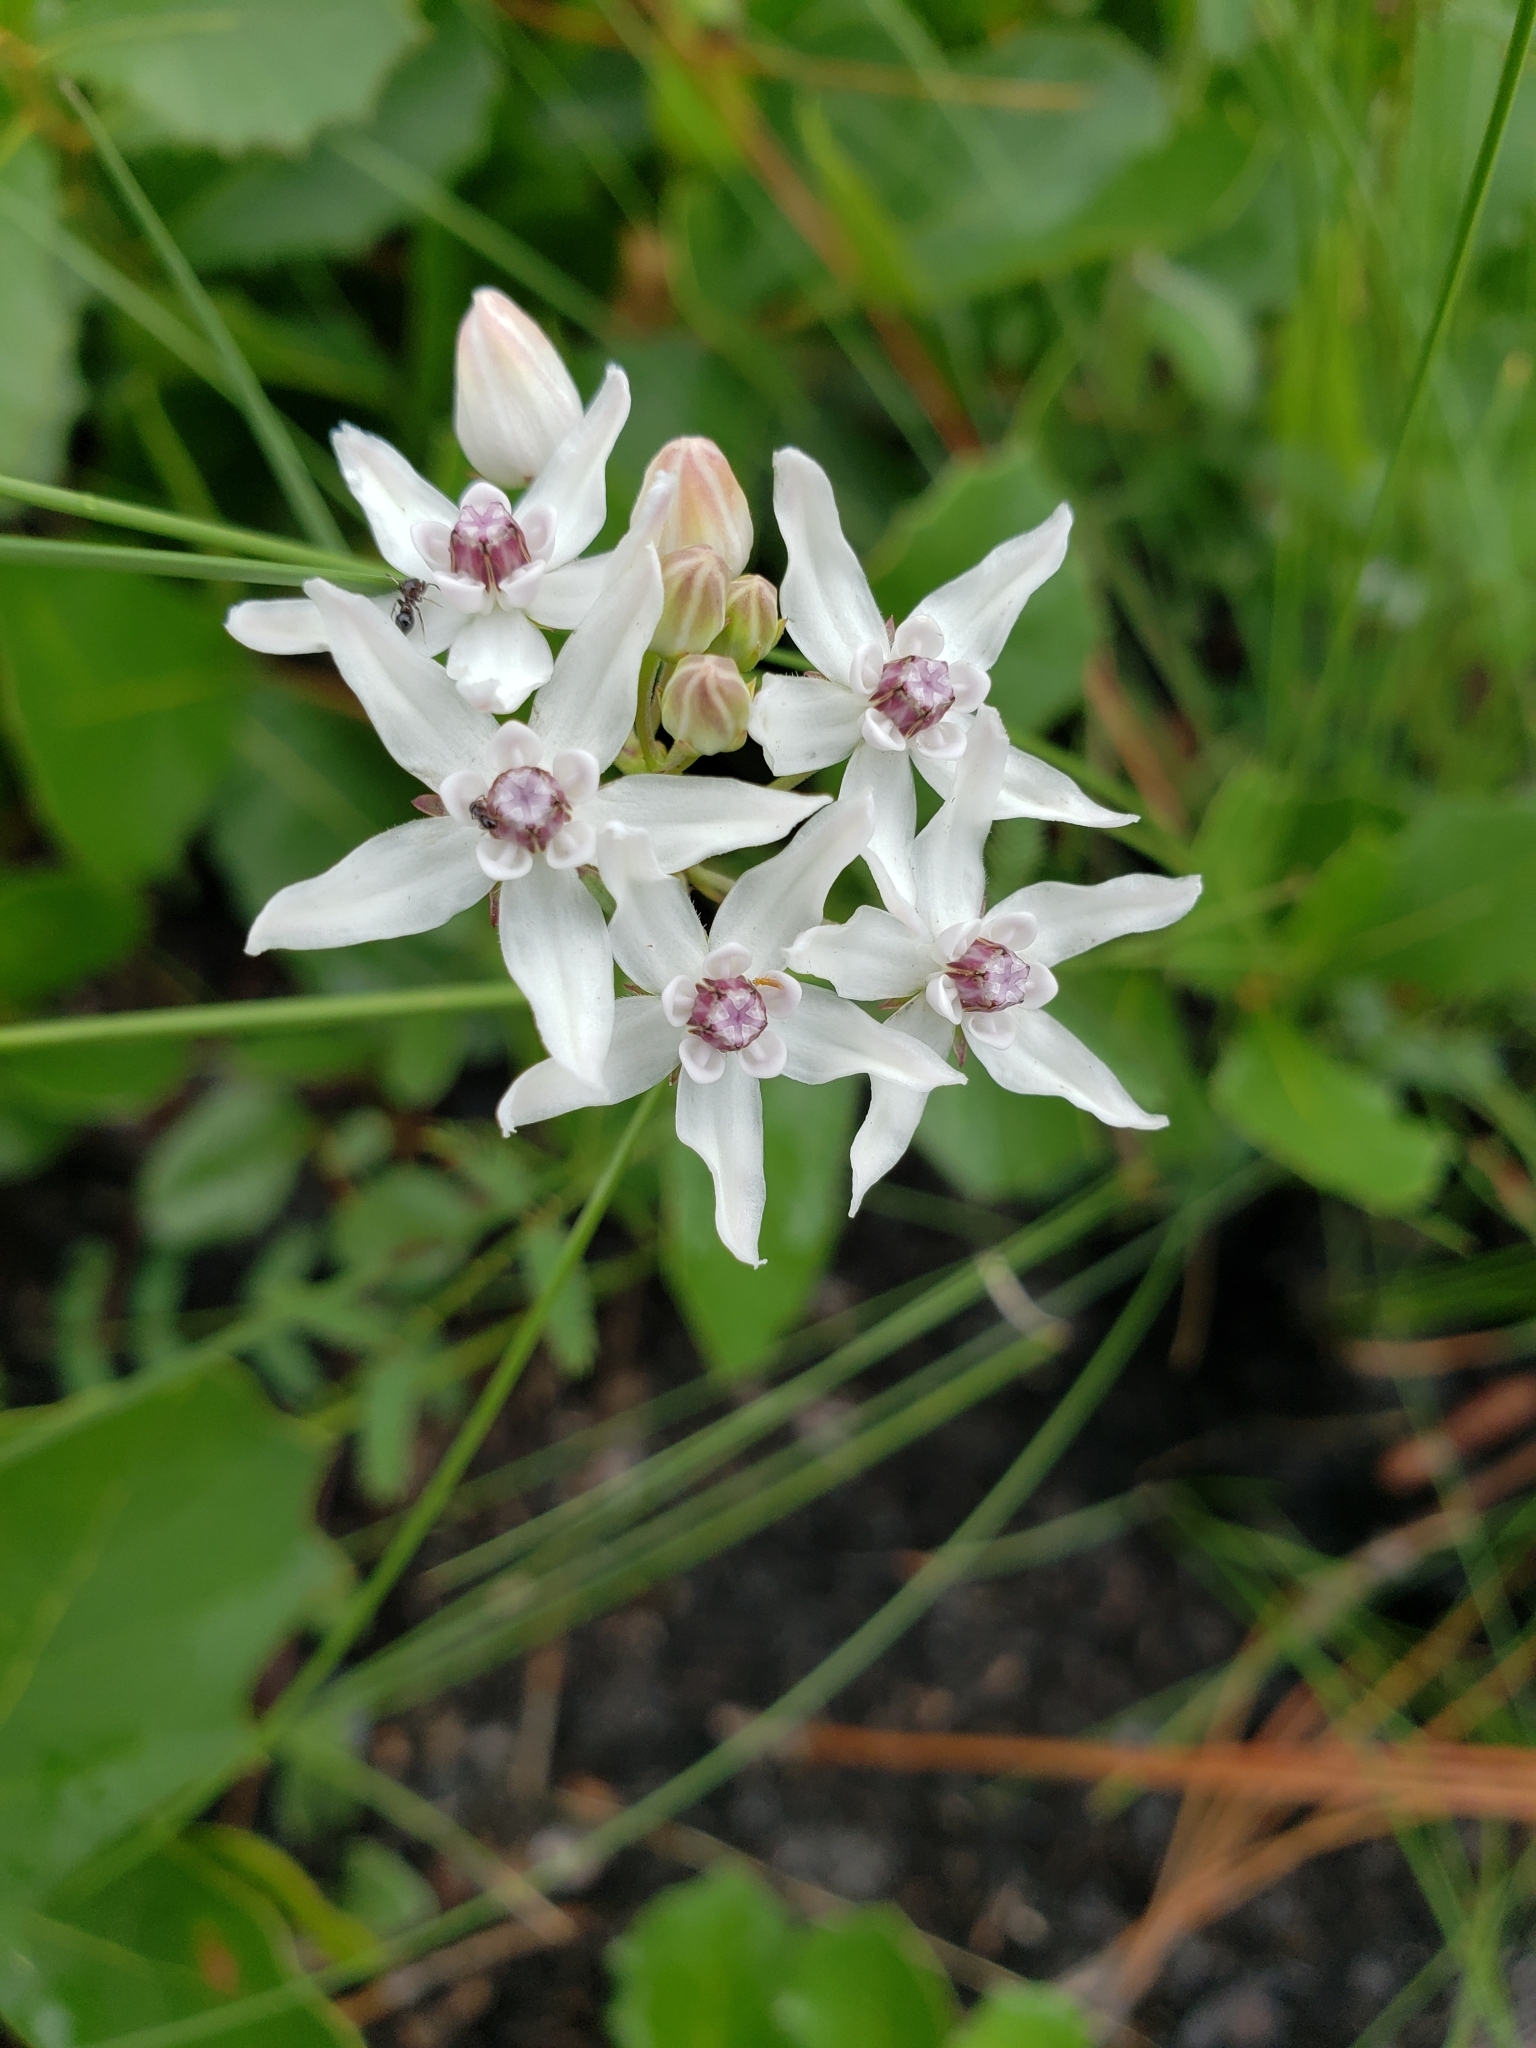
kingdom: Plantae
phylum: Tracheophyta
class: Magnoliopsida
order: Gentianales
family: Apocynaceae
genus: Asclepias
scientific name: Asclepias feayi
